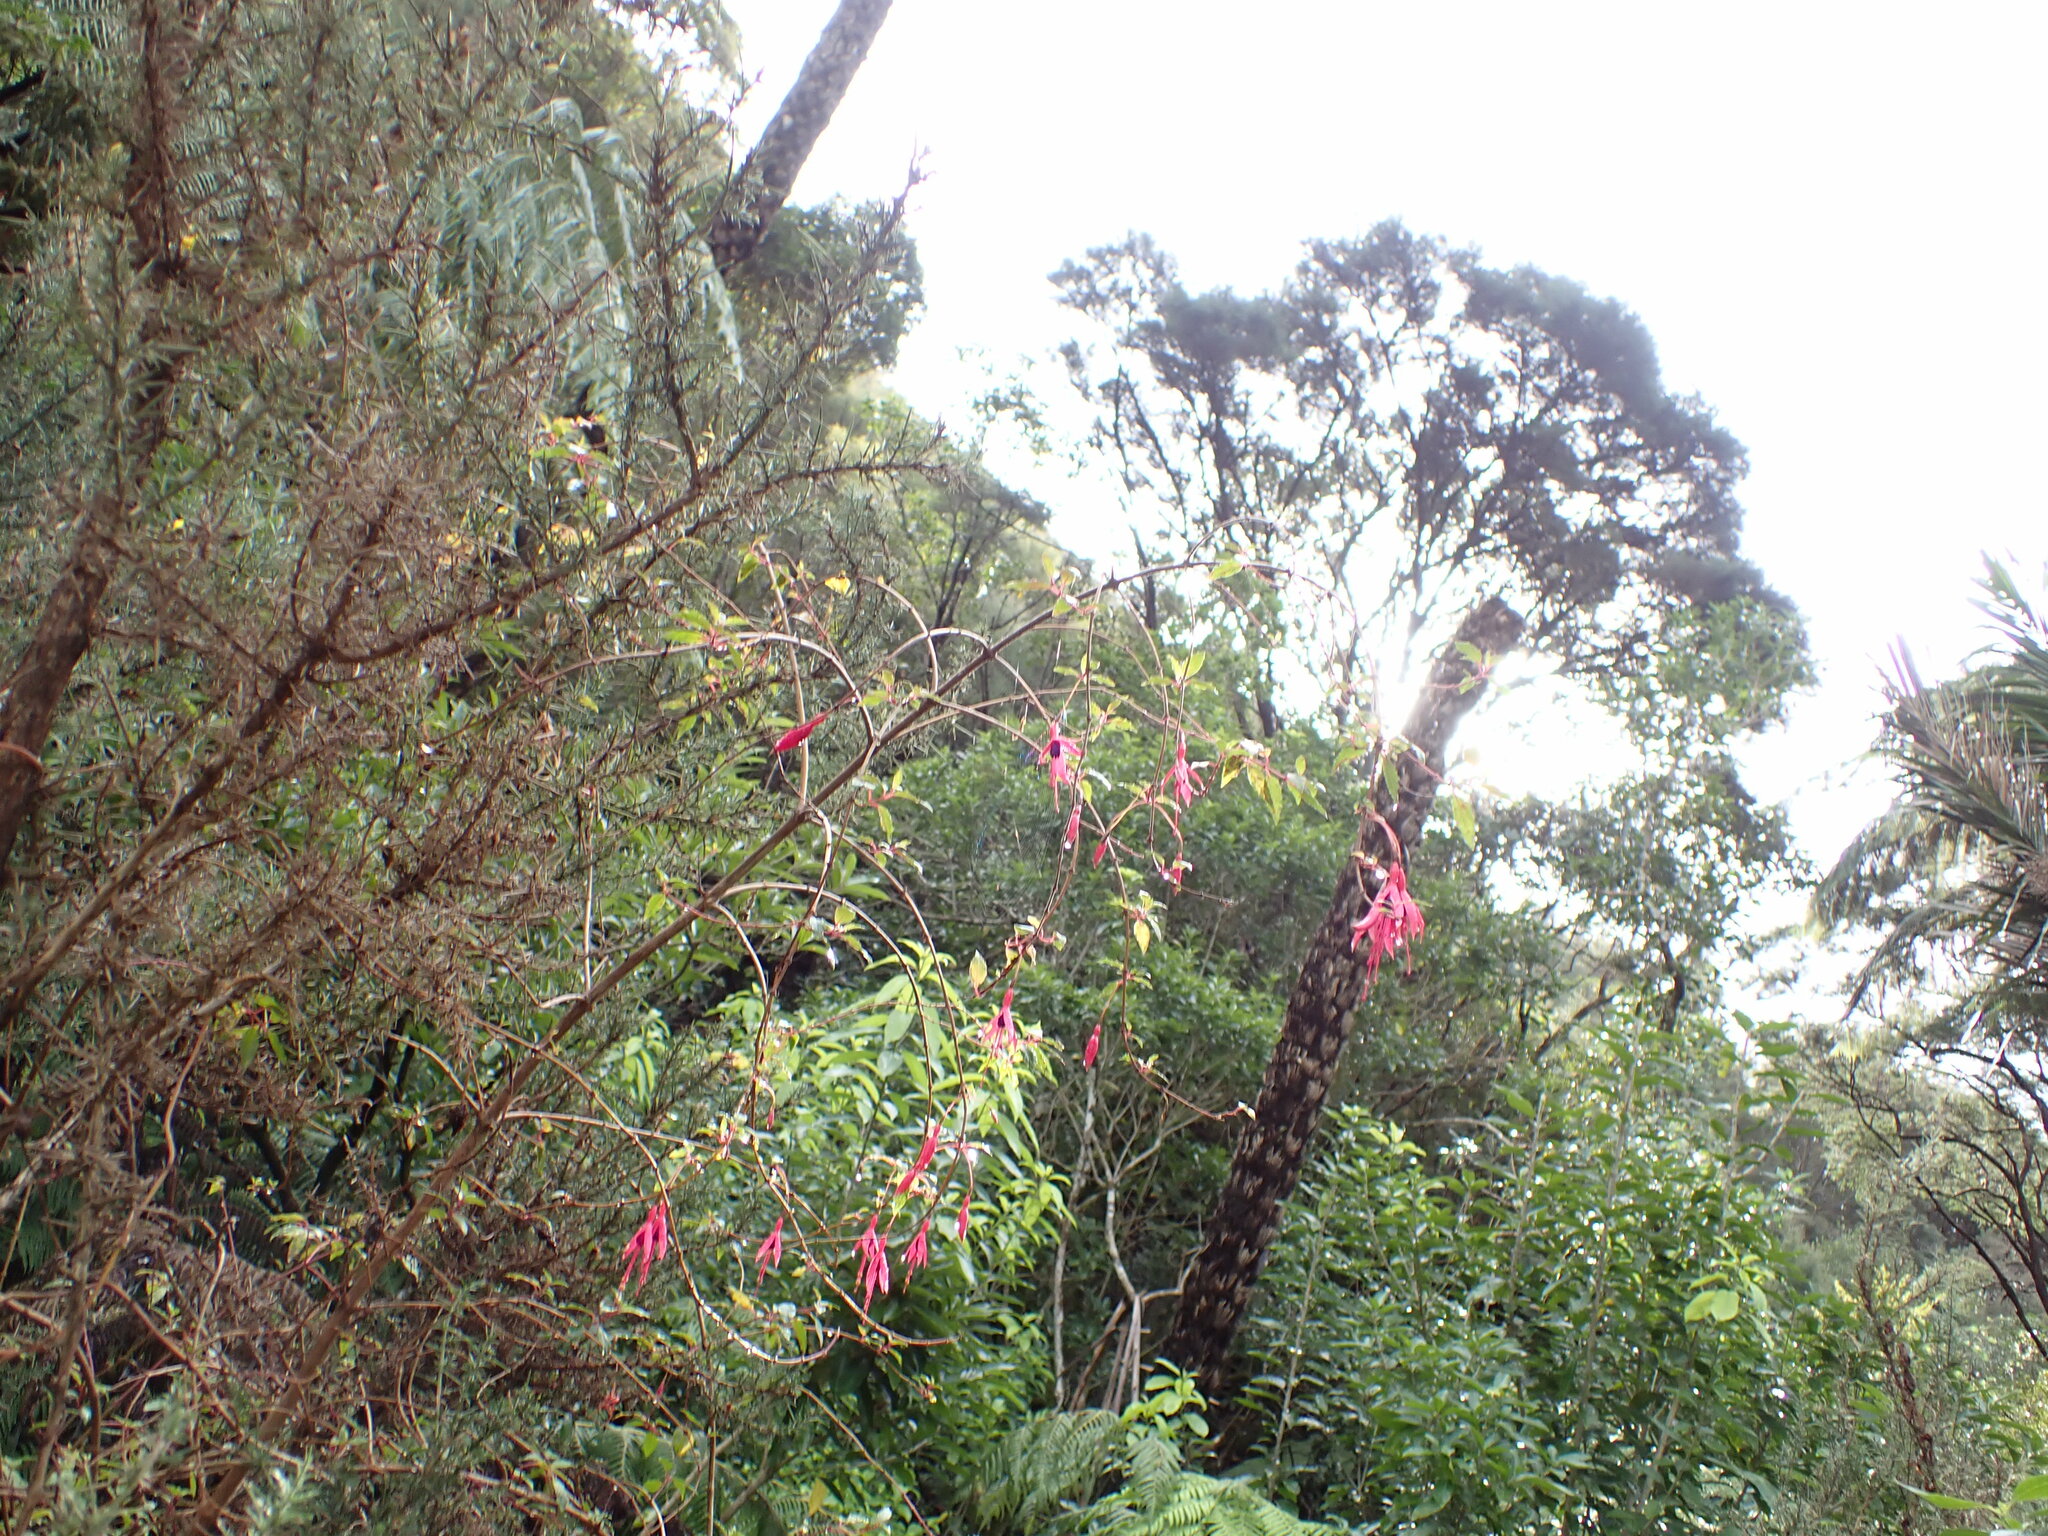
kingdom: Plantae
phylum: Tracheophyta
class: Magnoliopsida
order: Myrtales
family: Onagraceae
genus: Fuchsia
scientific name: Fuchsia magellanica
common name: Hardy fuchsia
